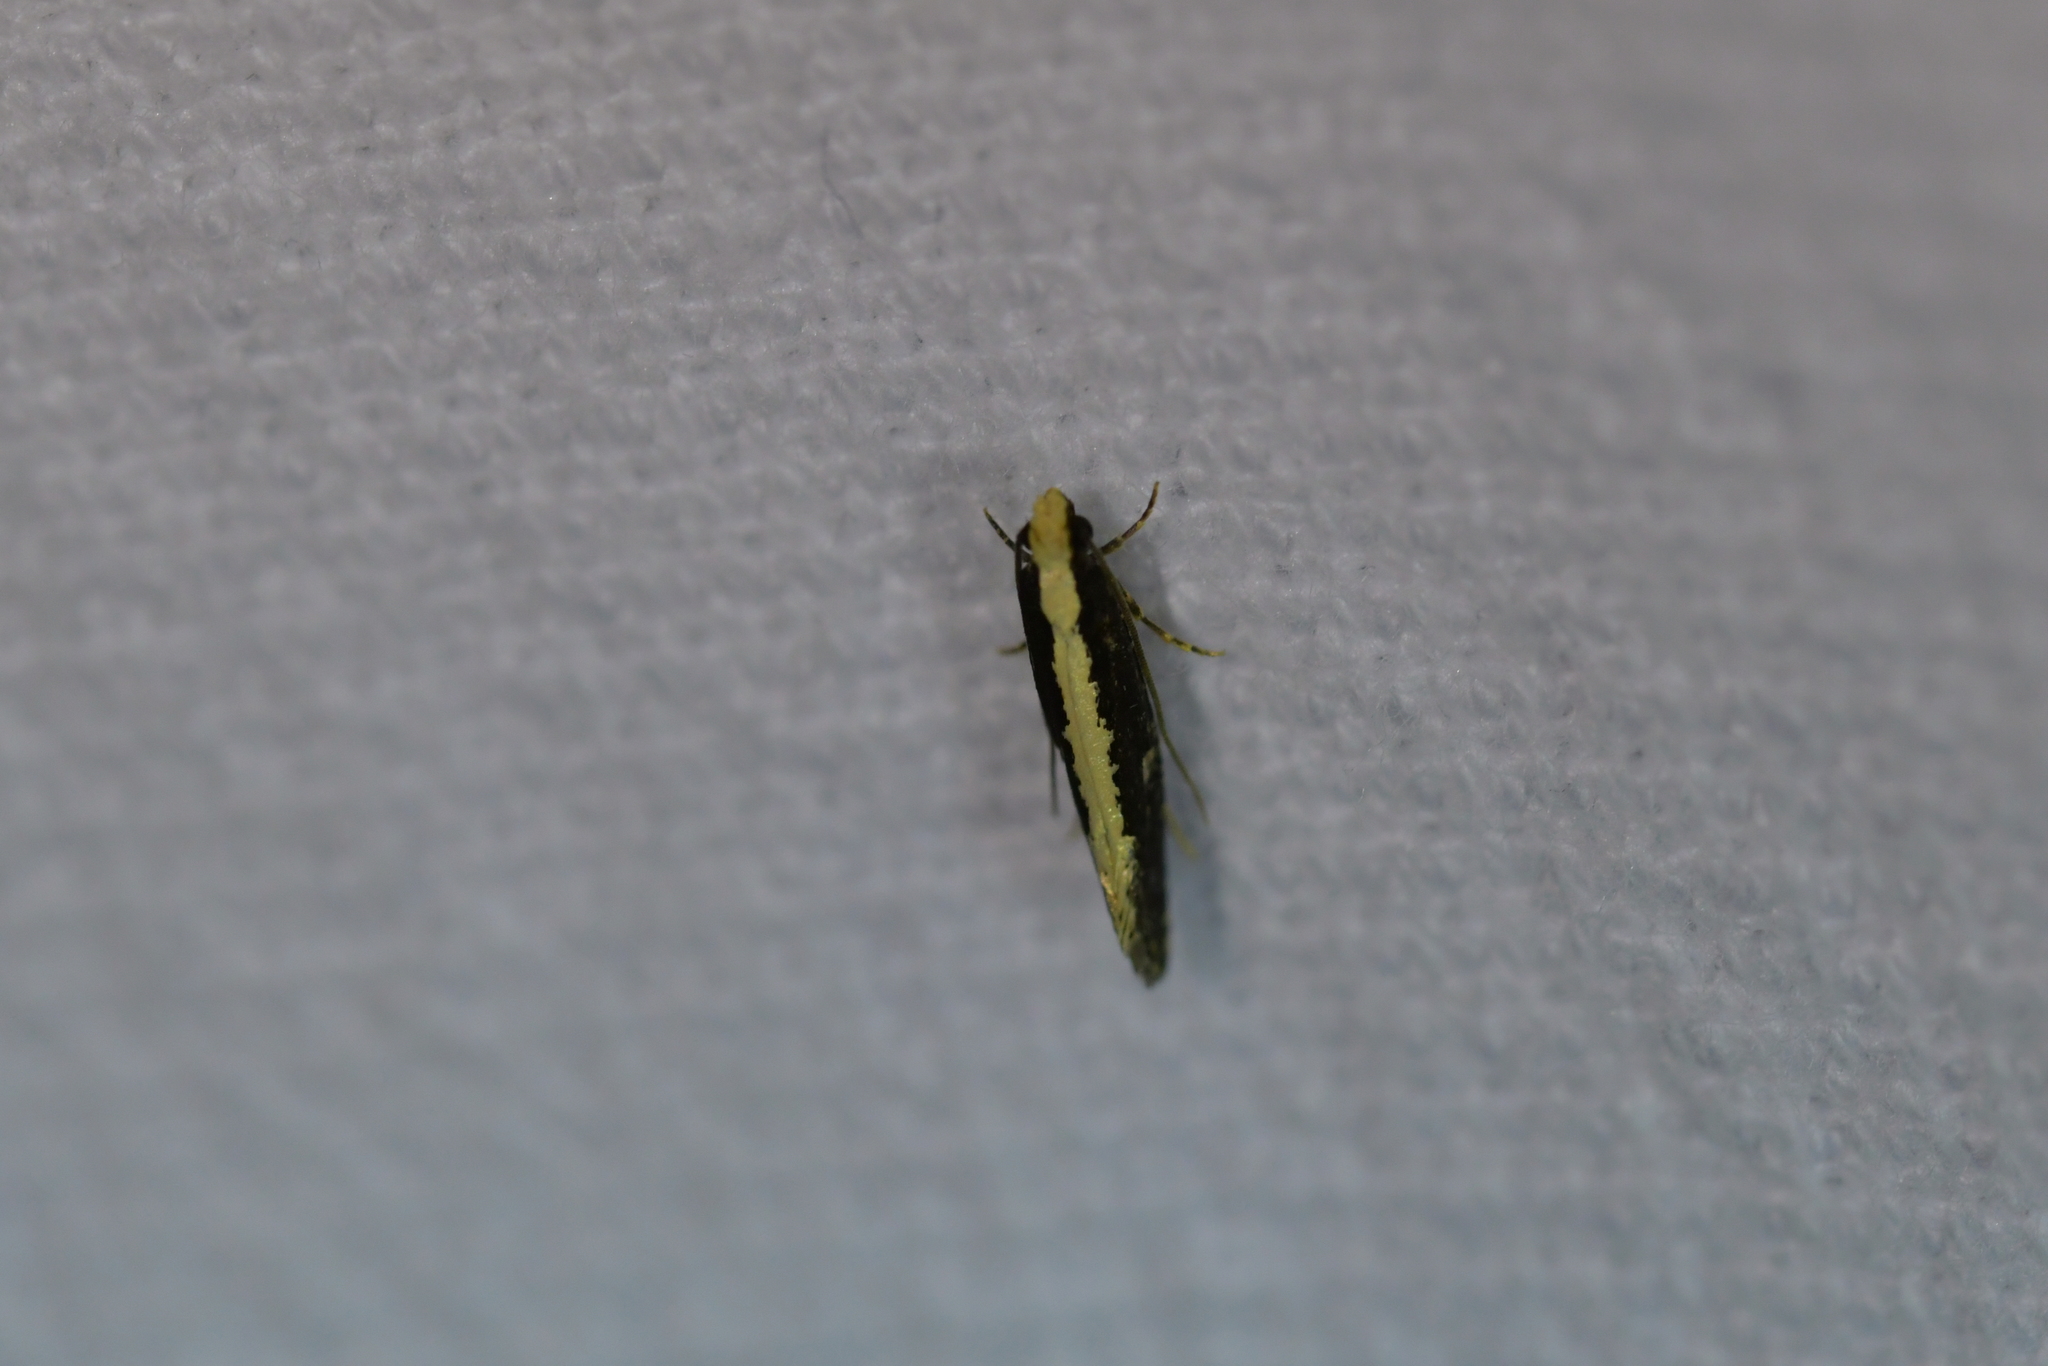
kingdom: Animalia
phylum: Arthropoda
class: Insecta
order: Lepidoptera
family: Tineidae
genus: Monopis
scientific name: Monopis ethelella
